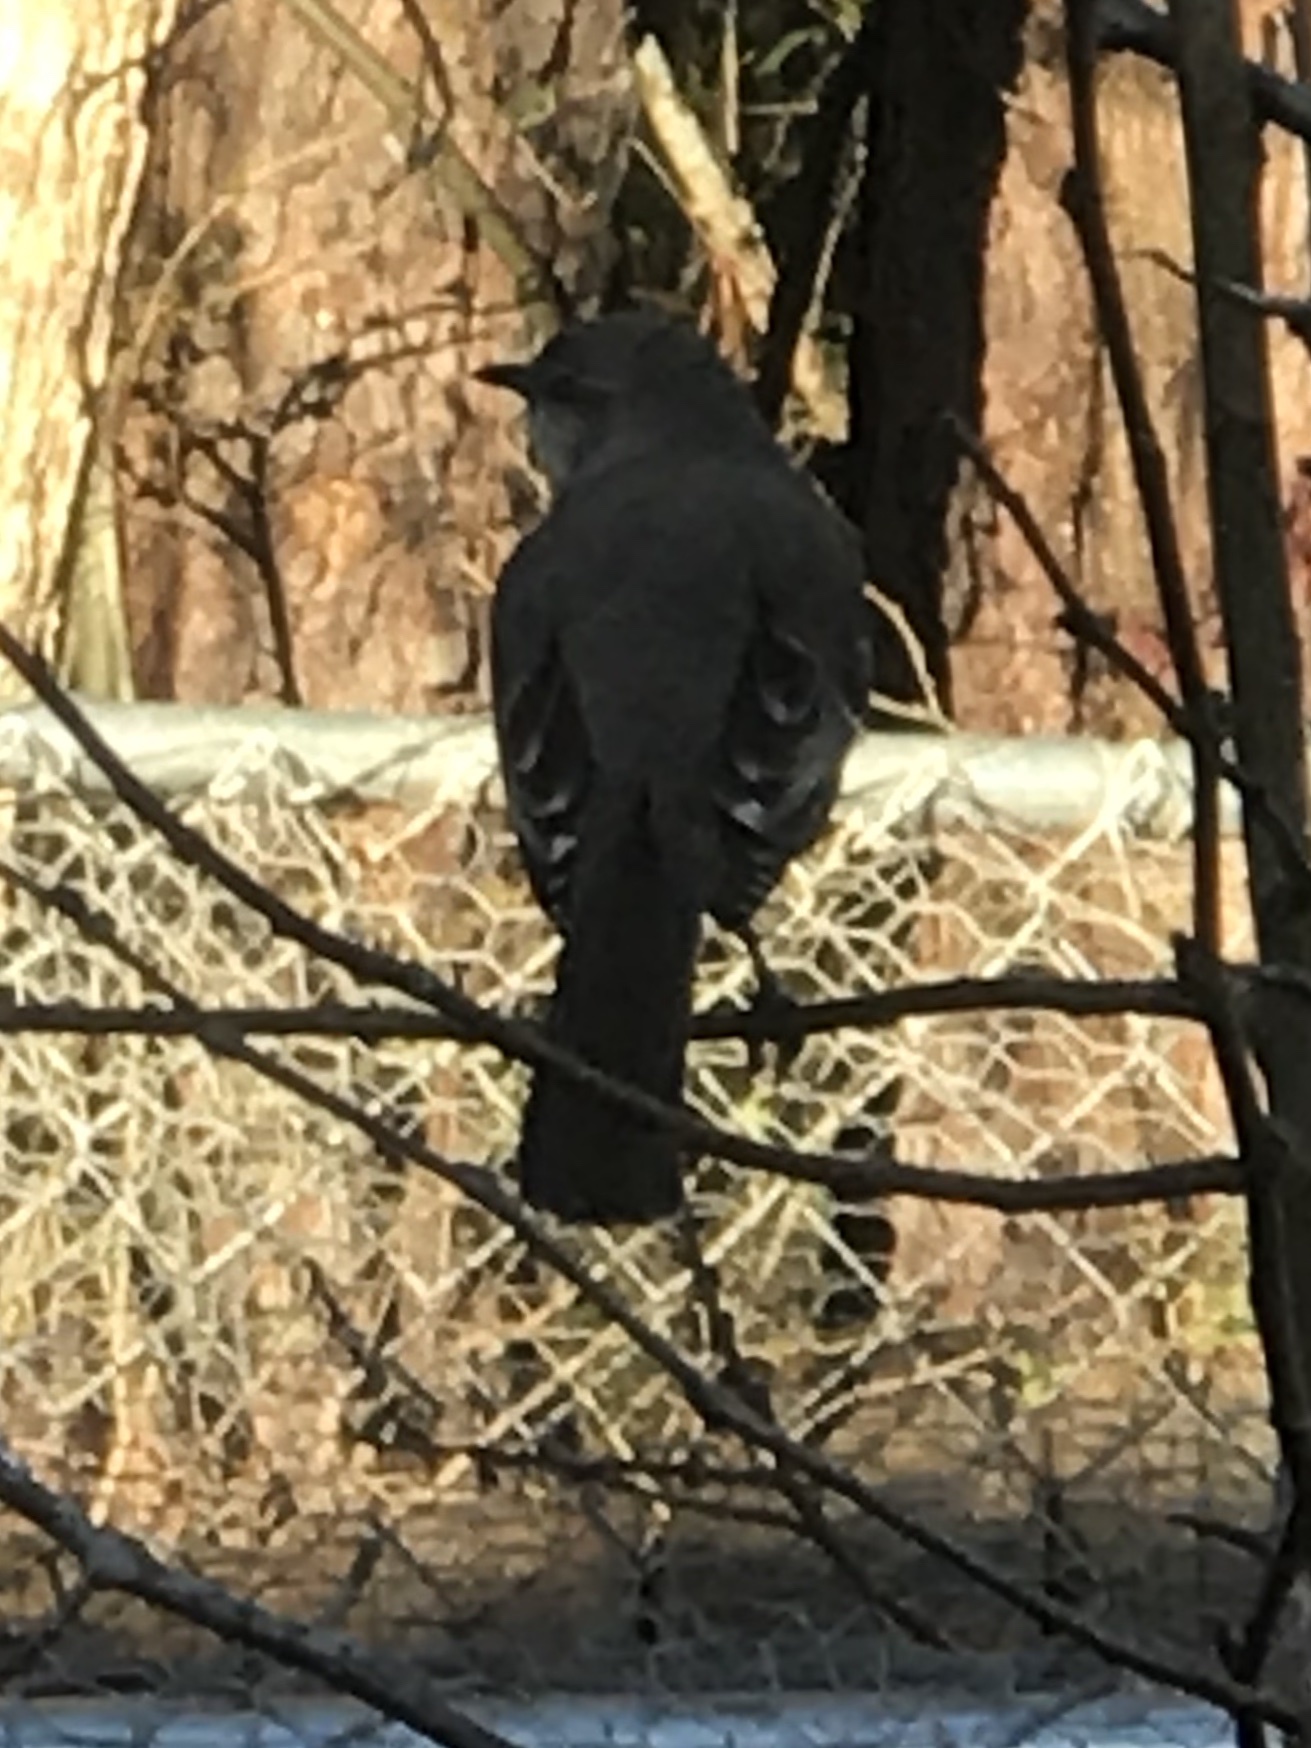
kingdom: Animalia
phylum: Chordata
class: Aves
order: Passeriformes
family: Mimidae
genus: Mimus
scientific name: Mimus polyglottos
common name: Northern mockingbird
